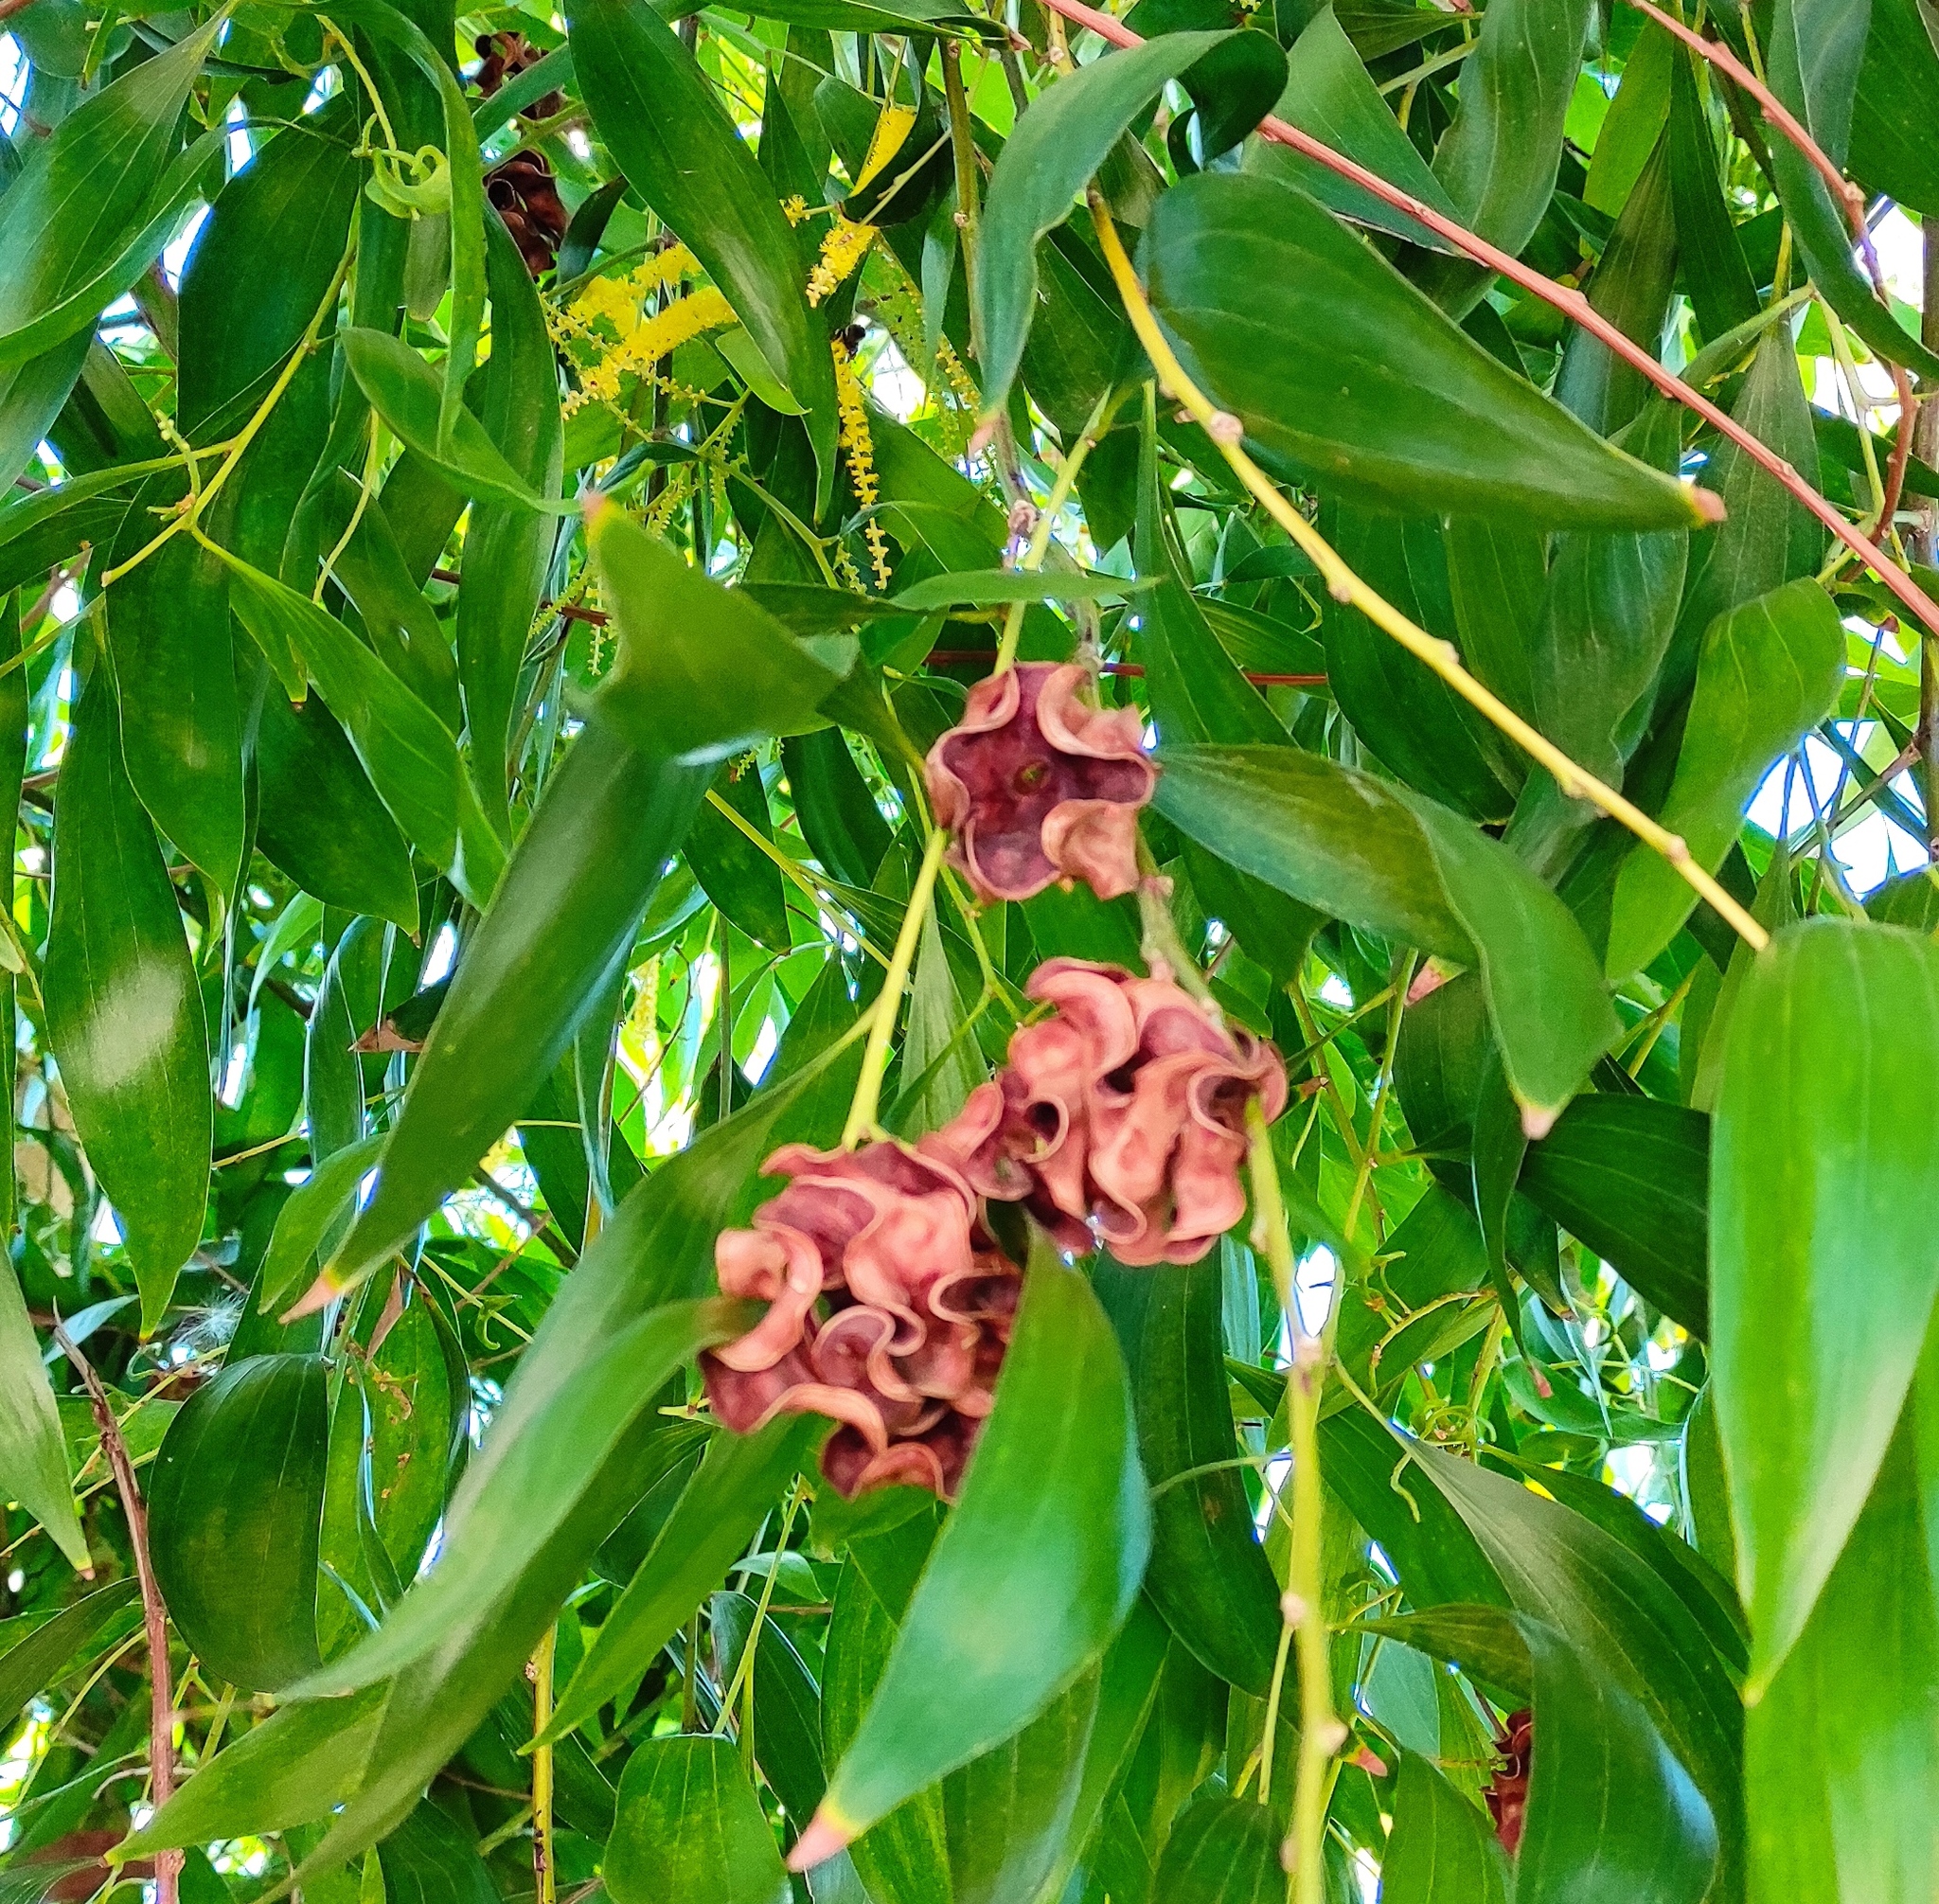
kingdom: Plantae
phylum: Tracheophyta
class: Magnoliopsida
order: Fabales
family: Fabaceae
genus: Acacia
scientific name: Acacia auriculiformis
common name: Earleaf acacia
